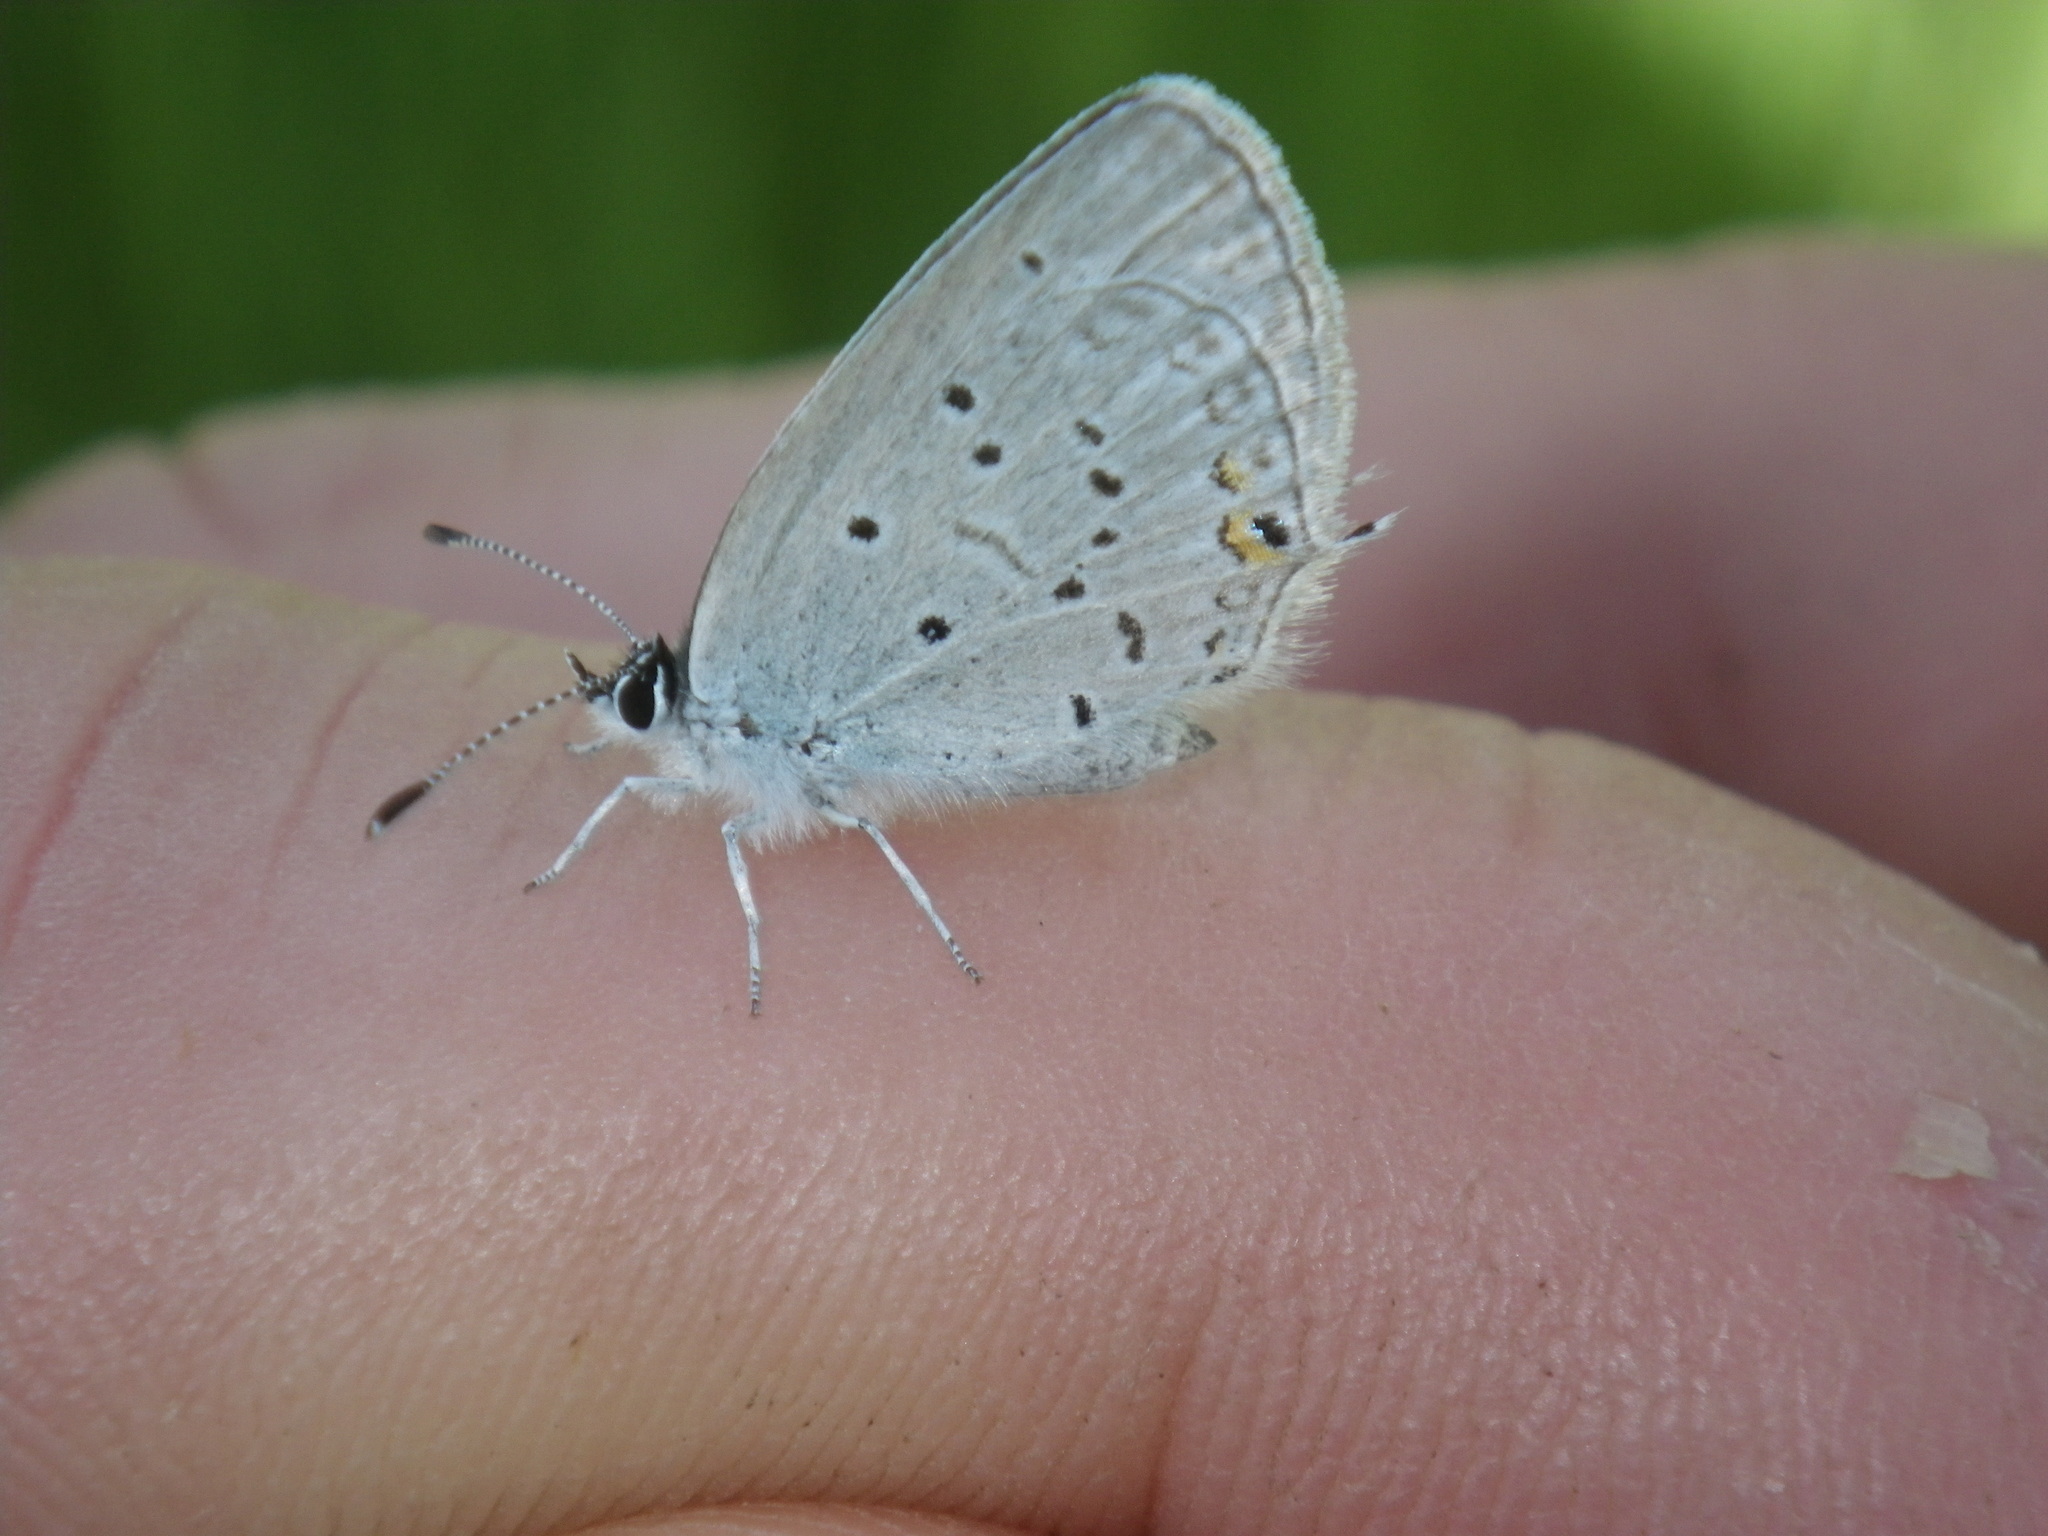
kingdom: Animalia
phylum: Arthropoda
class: Insecta
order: Lepidoptera
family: Lycaenidae
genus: Elkalyce
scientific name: Elkalyce comyntas
